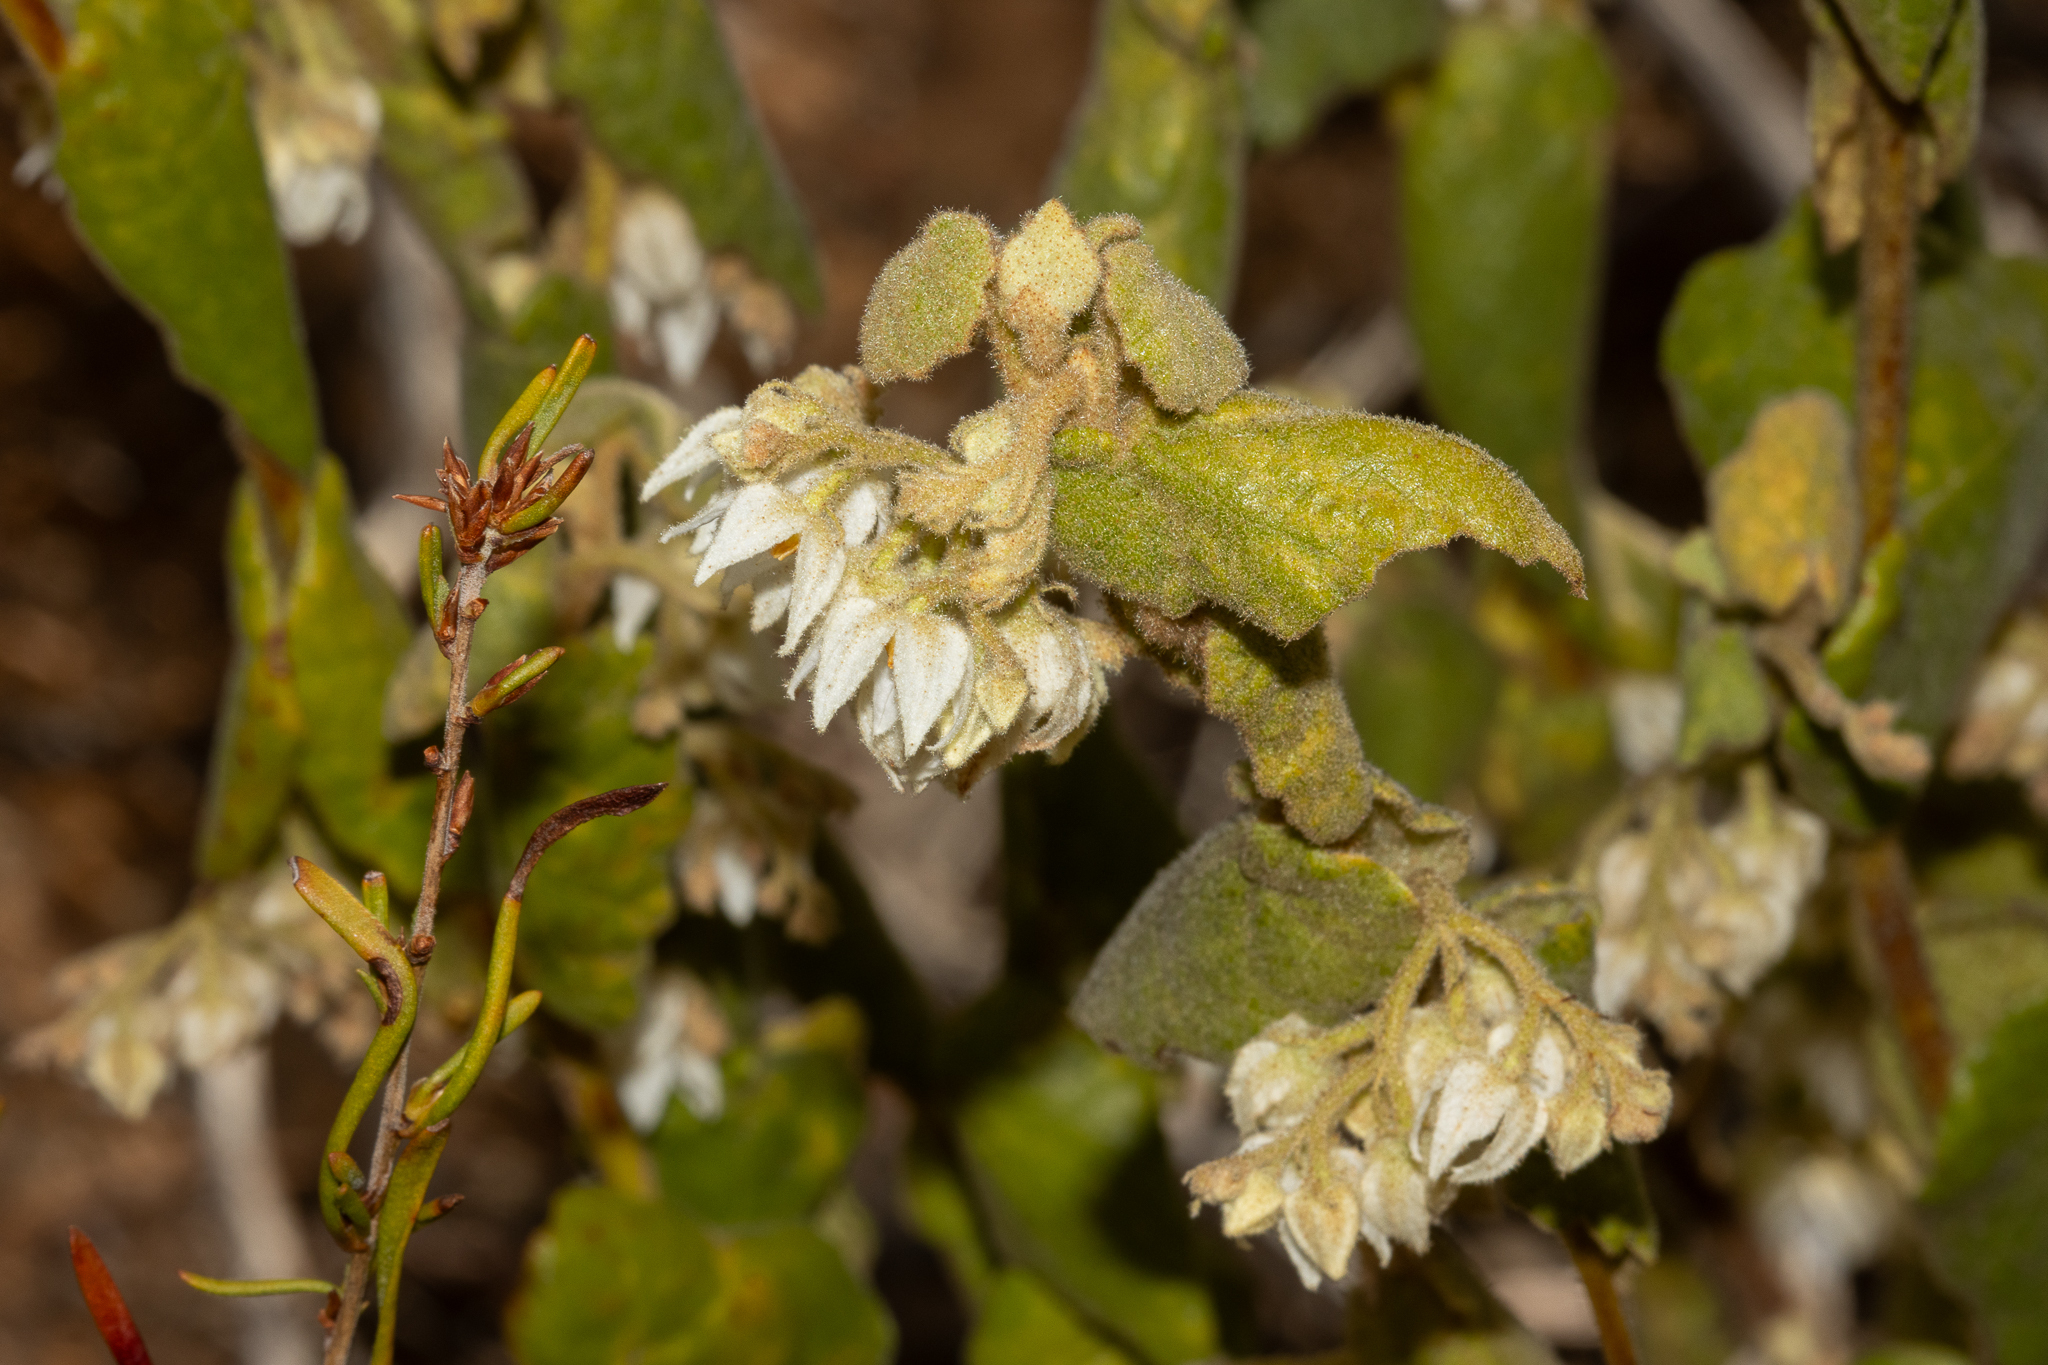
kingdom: Plantae
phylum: Tracheophyta
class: Magnoliopsida
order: Malvales
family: Malvaceae
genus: Lasiopetalum
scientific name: Lasiopetalum schulzenii
